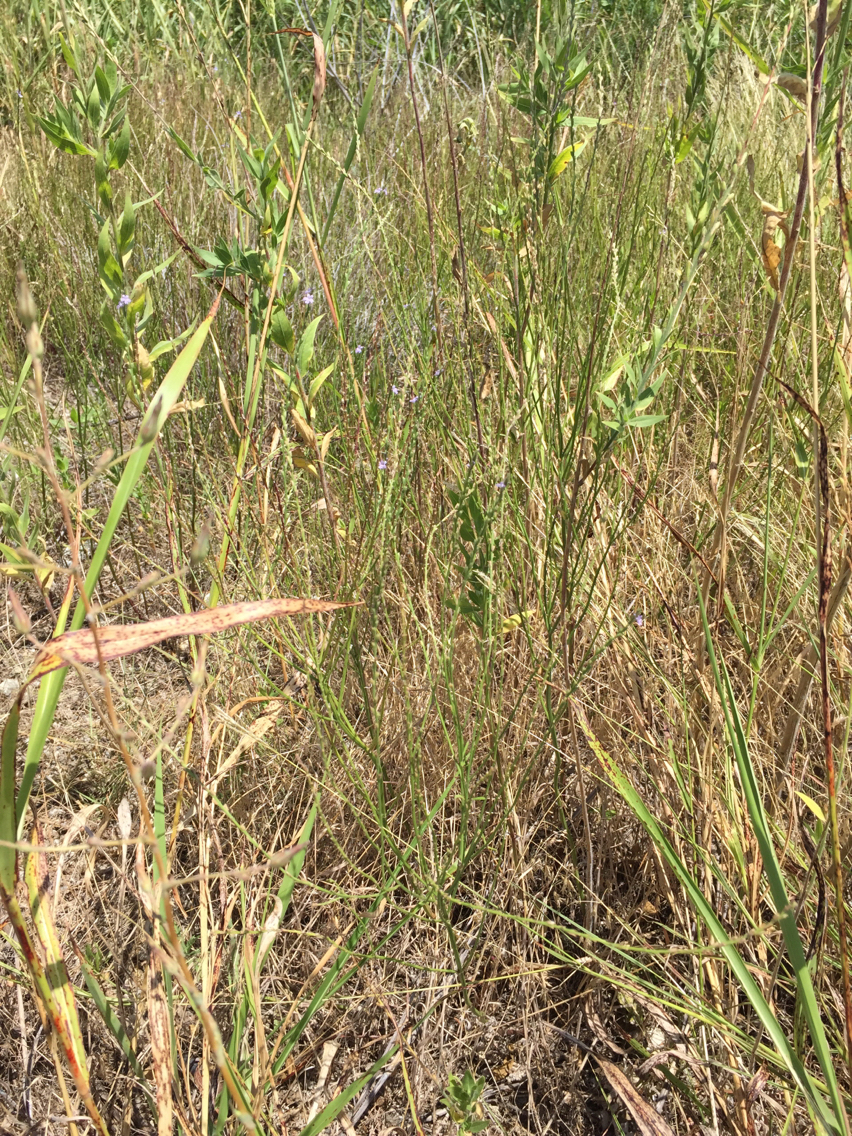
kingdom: Plantae
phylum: Tracheophyta
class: Magnoliopsida
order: Lamiales
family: Verbenaceae
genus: Verbena
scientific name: Verbena halei
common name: Texas vervain
